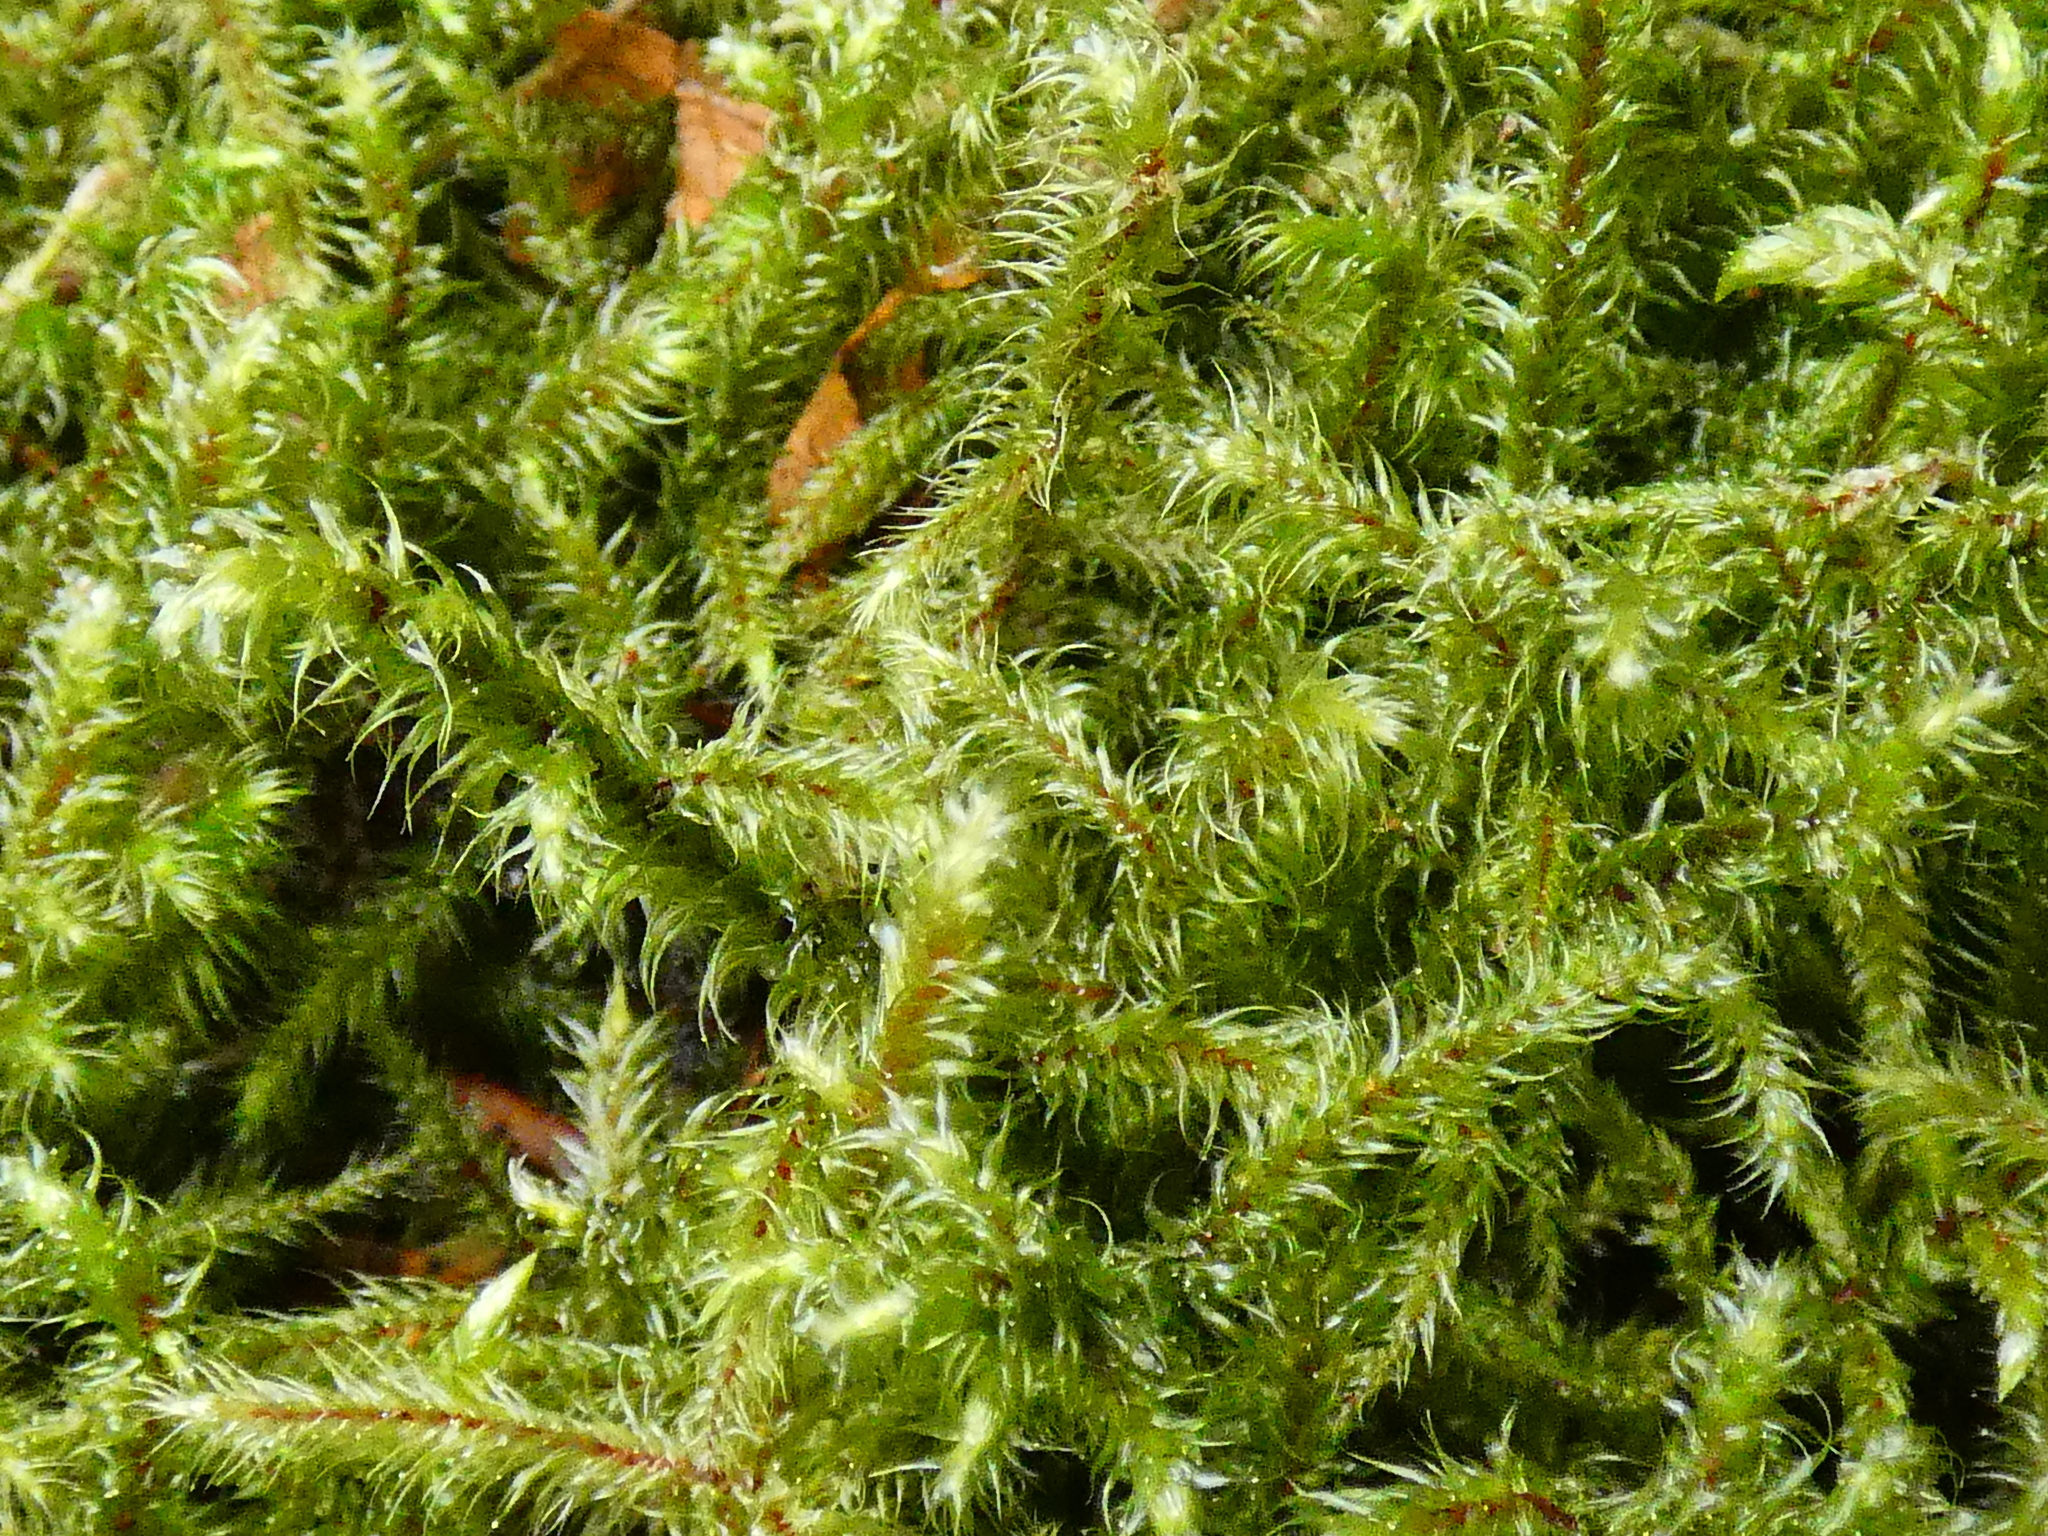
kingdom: Plantae
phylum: Bryophyta
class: Bryopsida
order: Hypnales
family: Hylocomiaceae
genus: Rhytidiadelphus
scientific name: Rhytidiadelphus loreus
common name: Lanky moss
